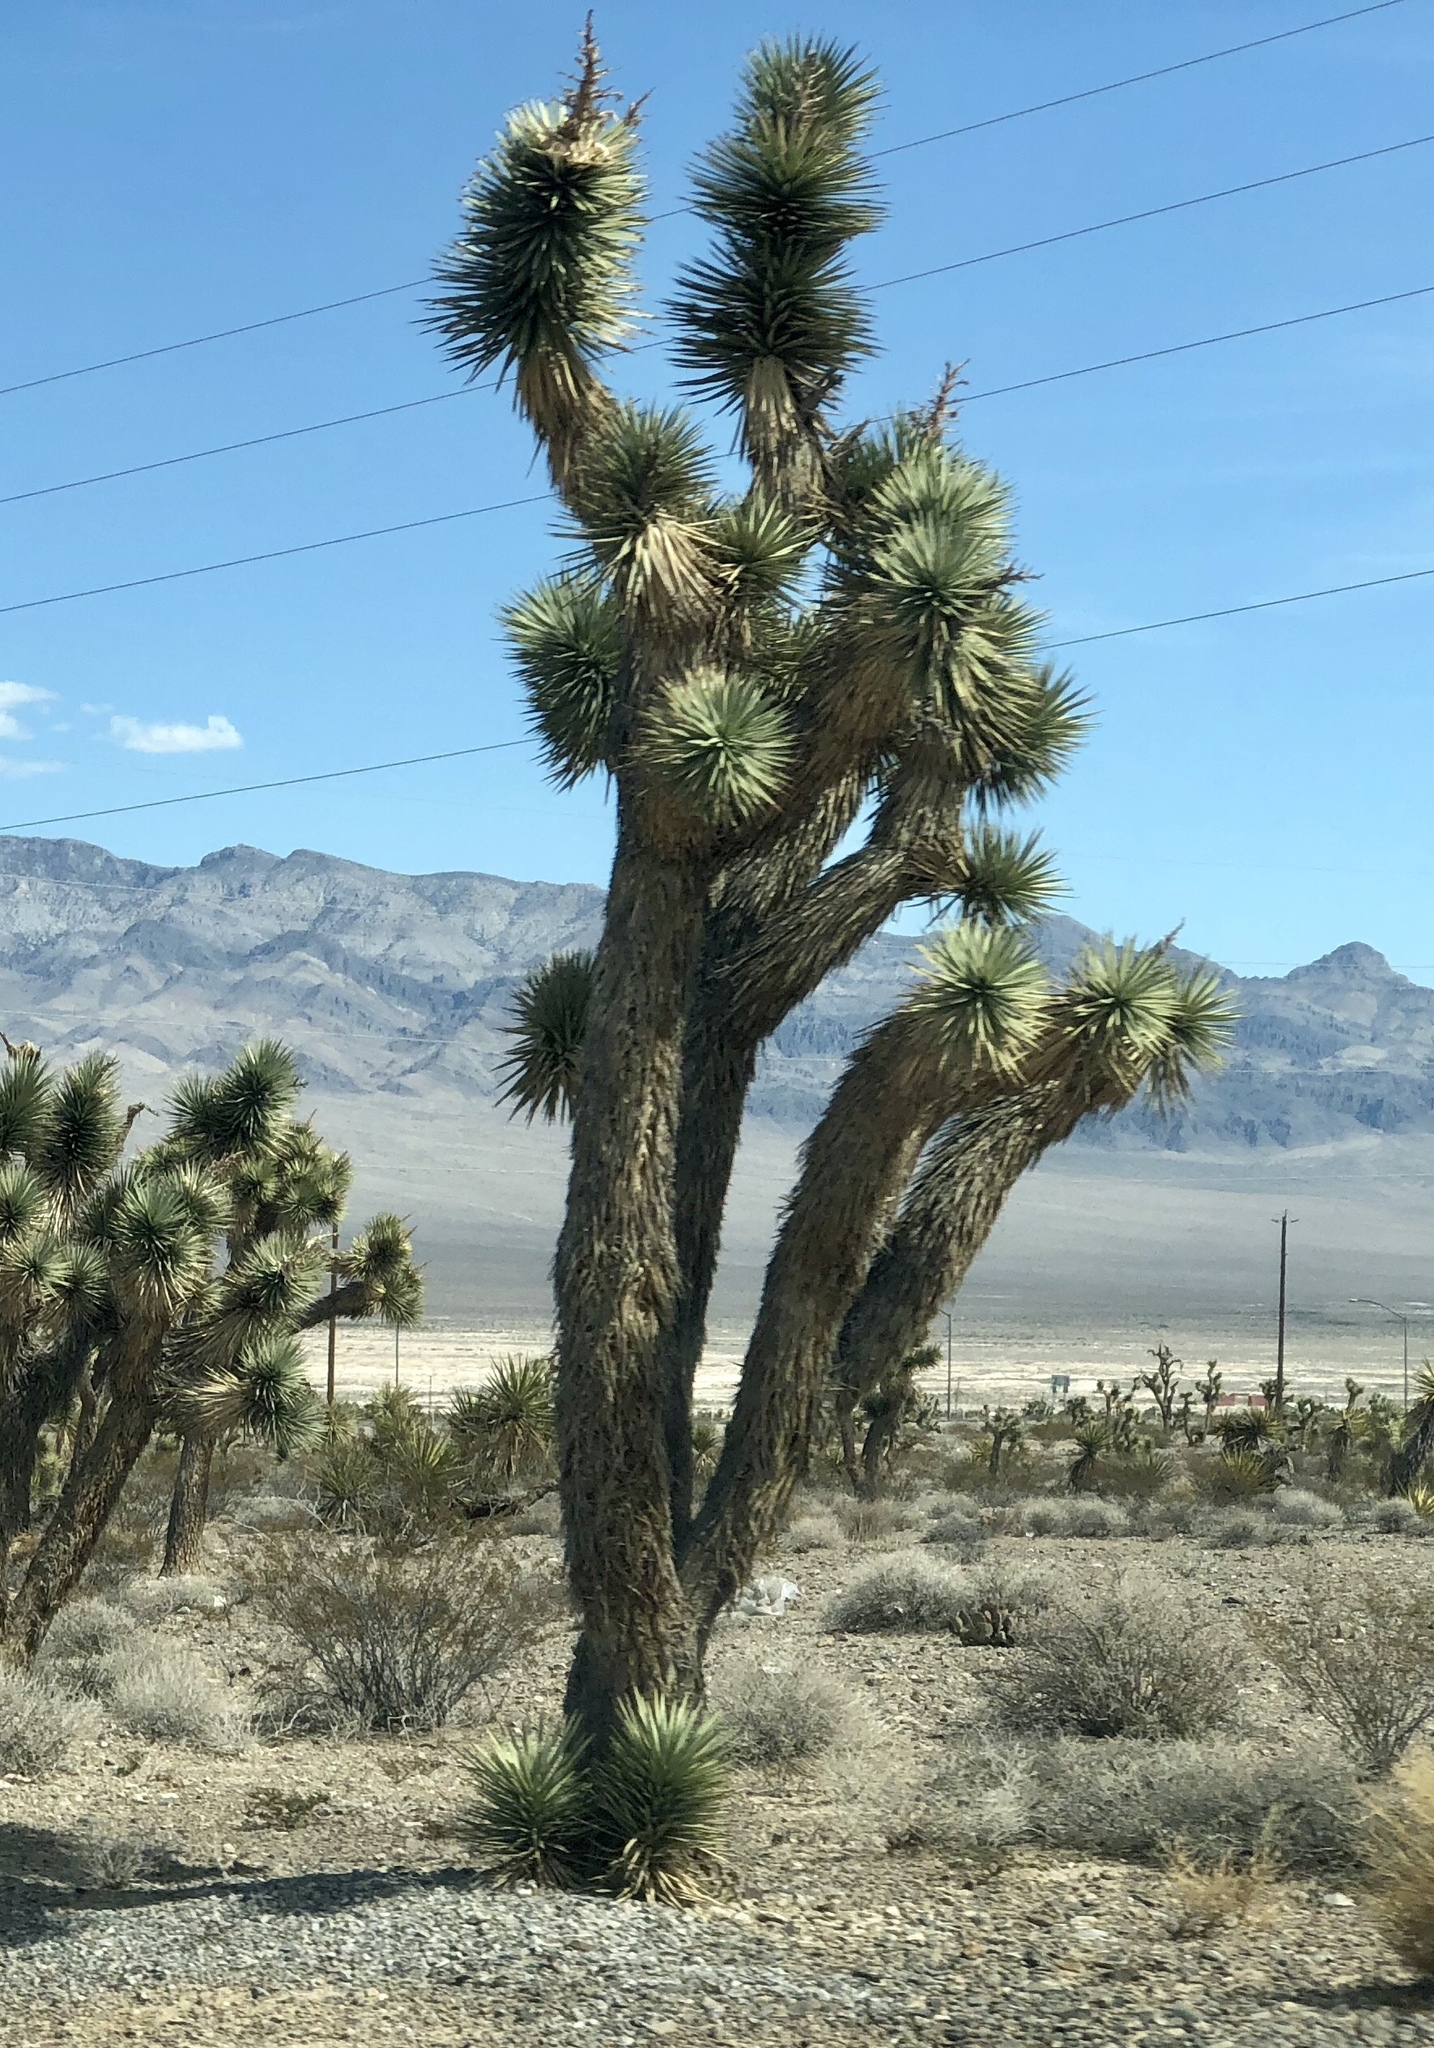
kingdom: Plantae
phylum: Tracheophyta
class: Liliopsida
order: Asparagales
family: Asparagaceae
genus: Yucca
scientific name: Yucca brevifolia
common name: Joshua tree
